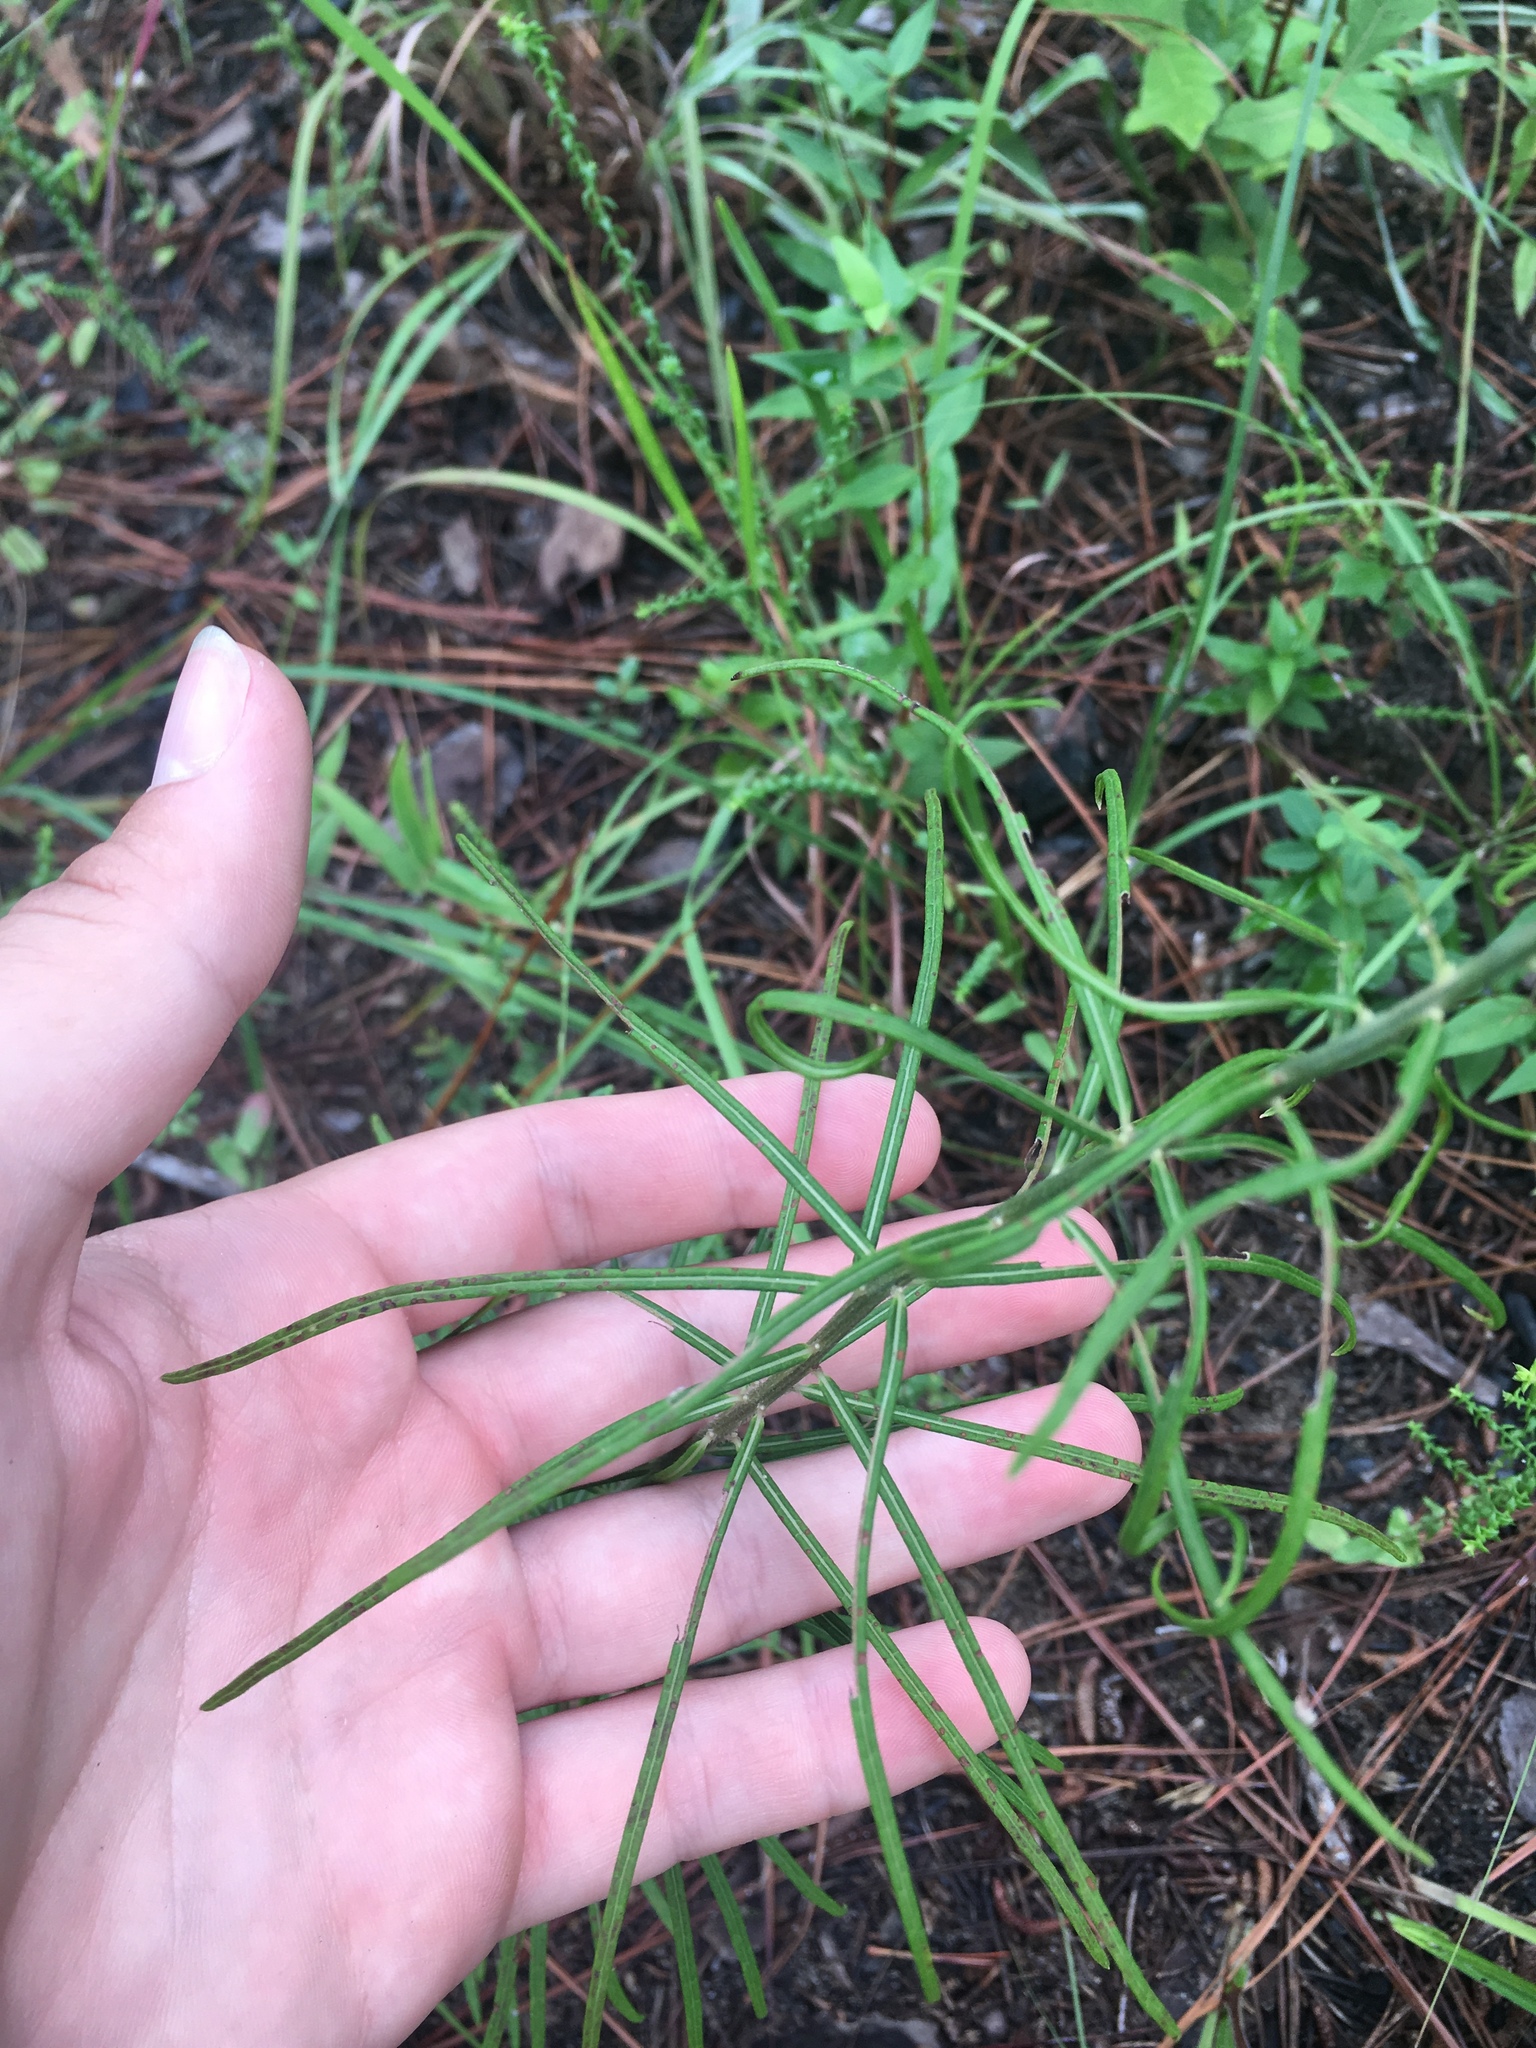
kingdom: Plantae
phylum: Tracheophyta
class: Magnoliopsida
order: Asterales
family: Asteraceae
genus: Vernonia
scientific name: Vernonia angustifolia
